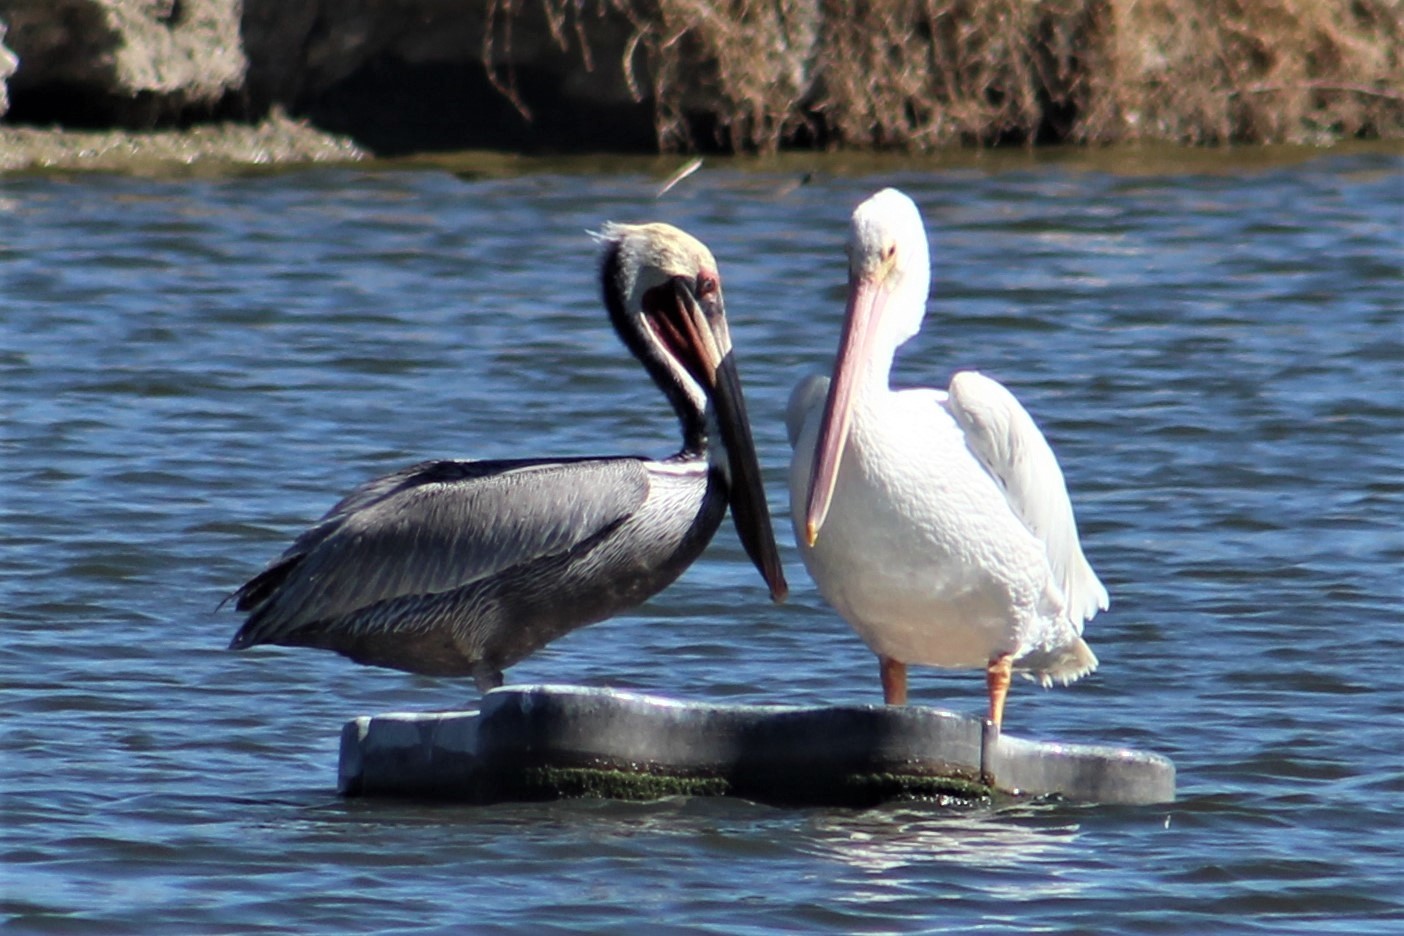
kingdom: Animalia
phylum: Chordata
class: Aves
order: Pelecaniformes
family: Pelecanidae
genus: Pelecanus
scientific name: Pelecanus occidentalis
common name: Brown pelican
